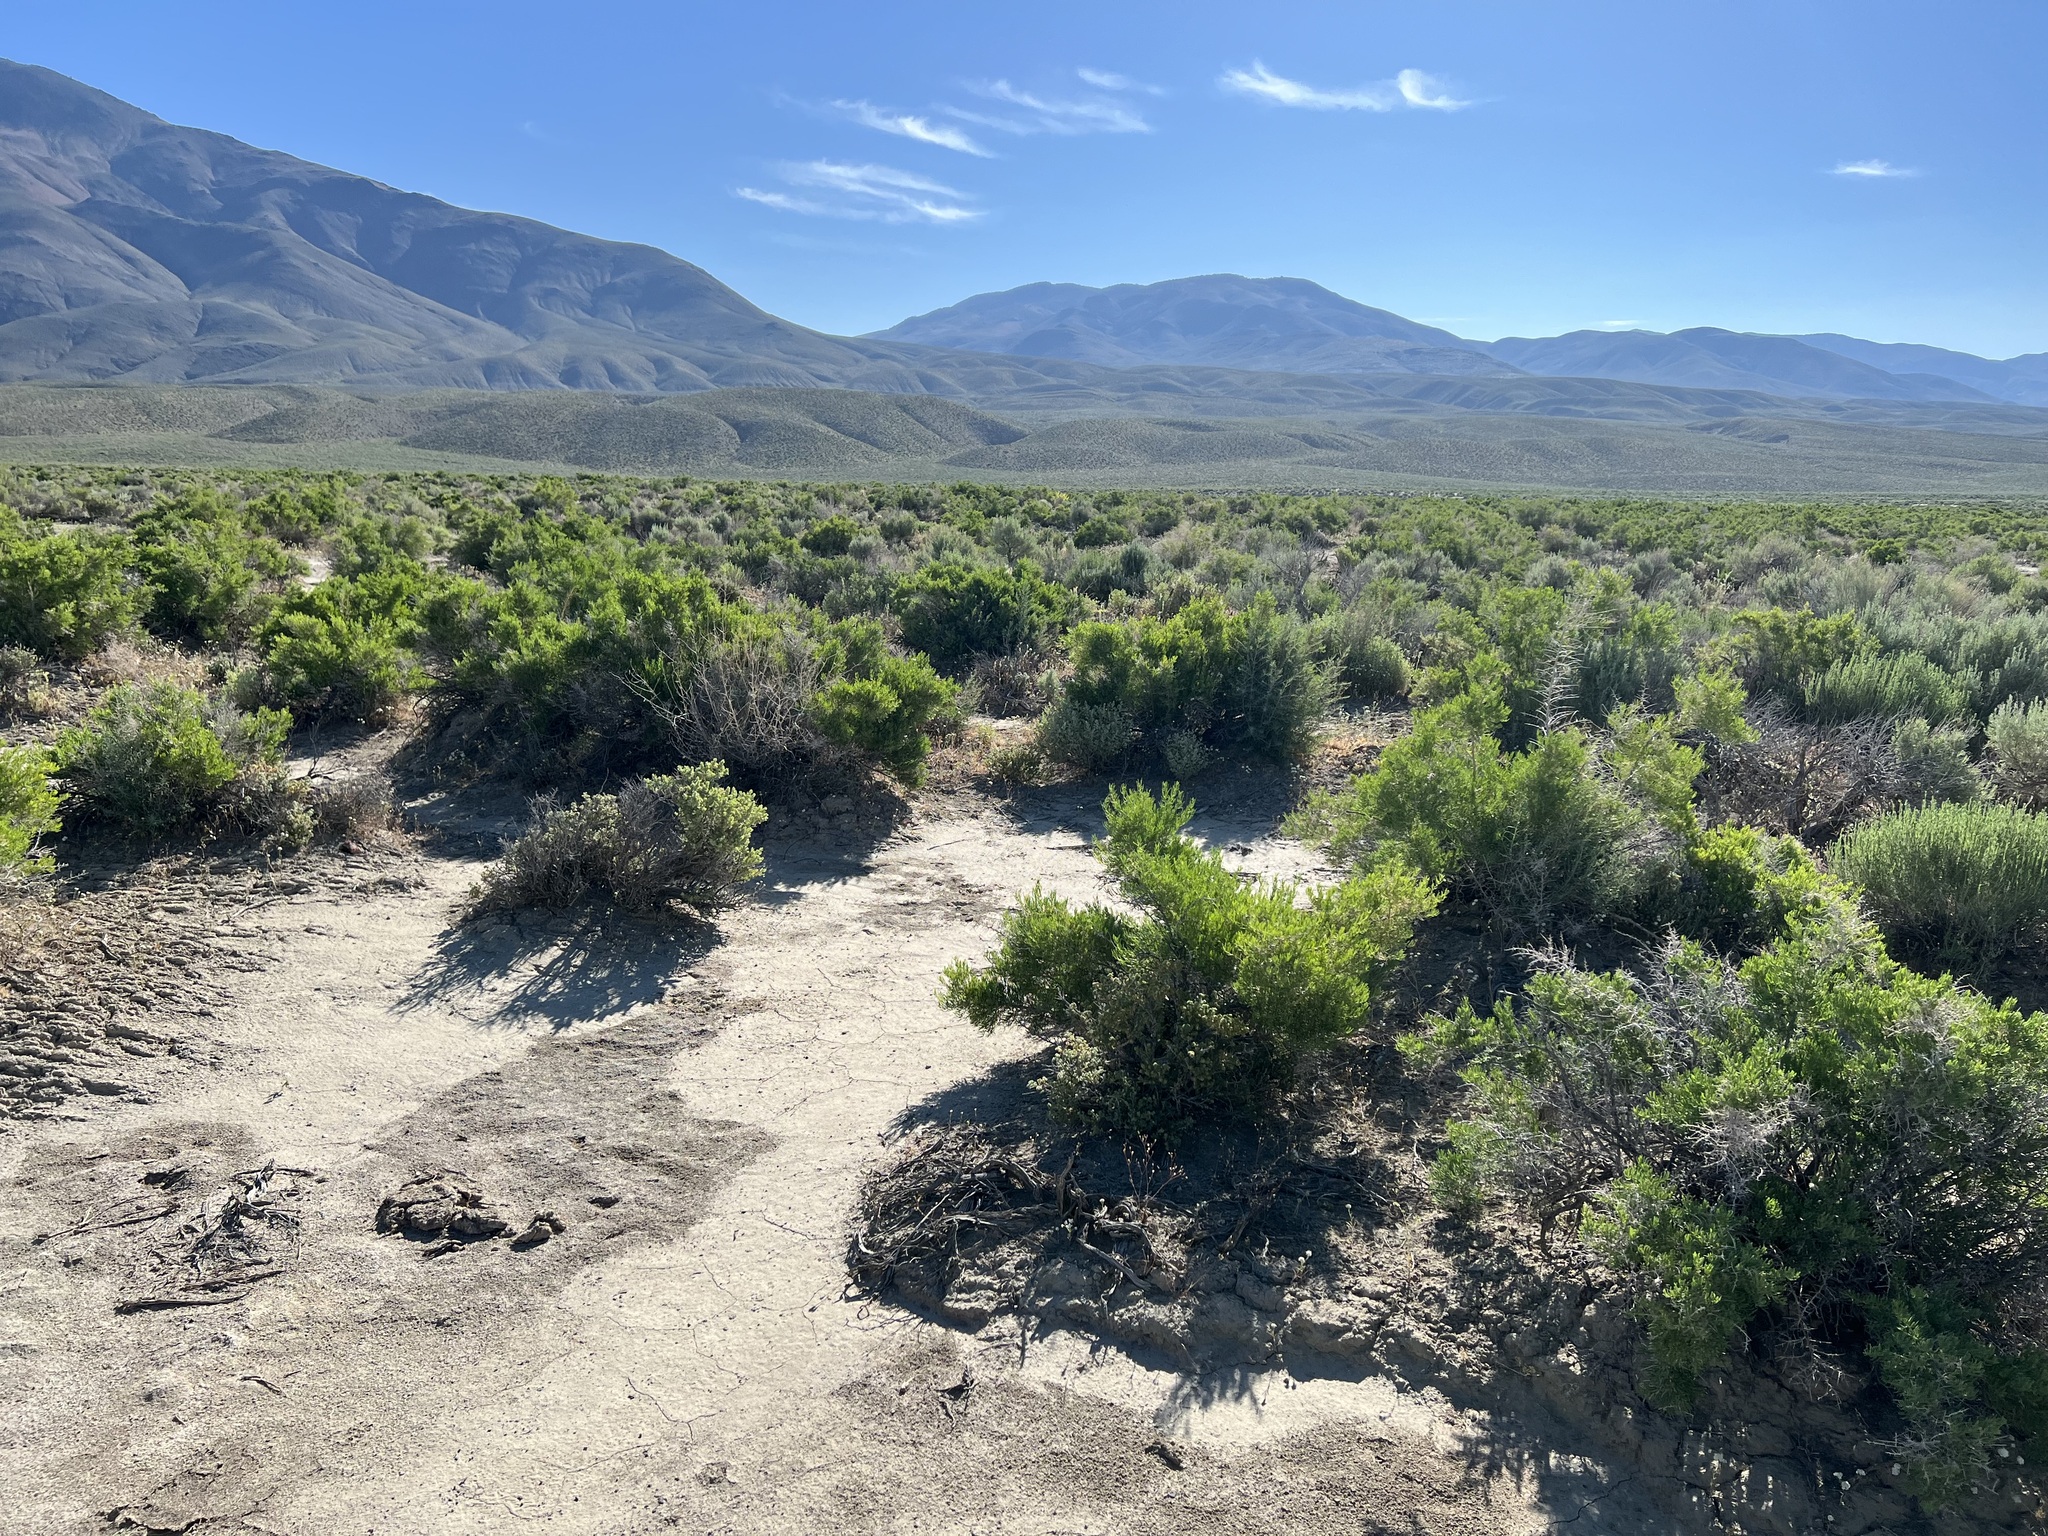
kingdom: Plantae
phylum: Tracheophyta
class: Magnoliopsida
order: Caryophyllales
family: Sarcobataceae
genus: Sarcobatus
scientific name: Sarcobatus vermiculatus
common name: Greasewood
